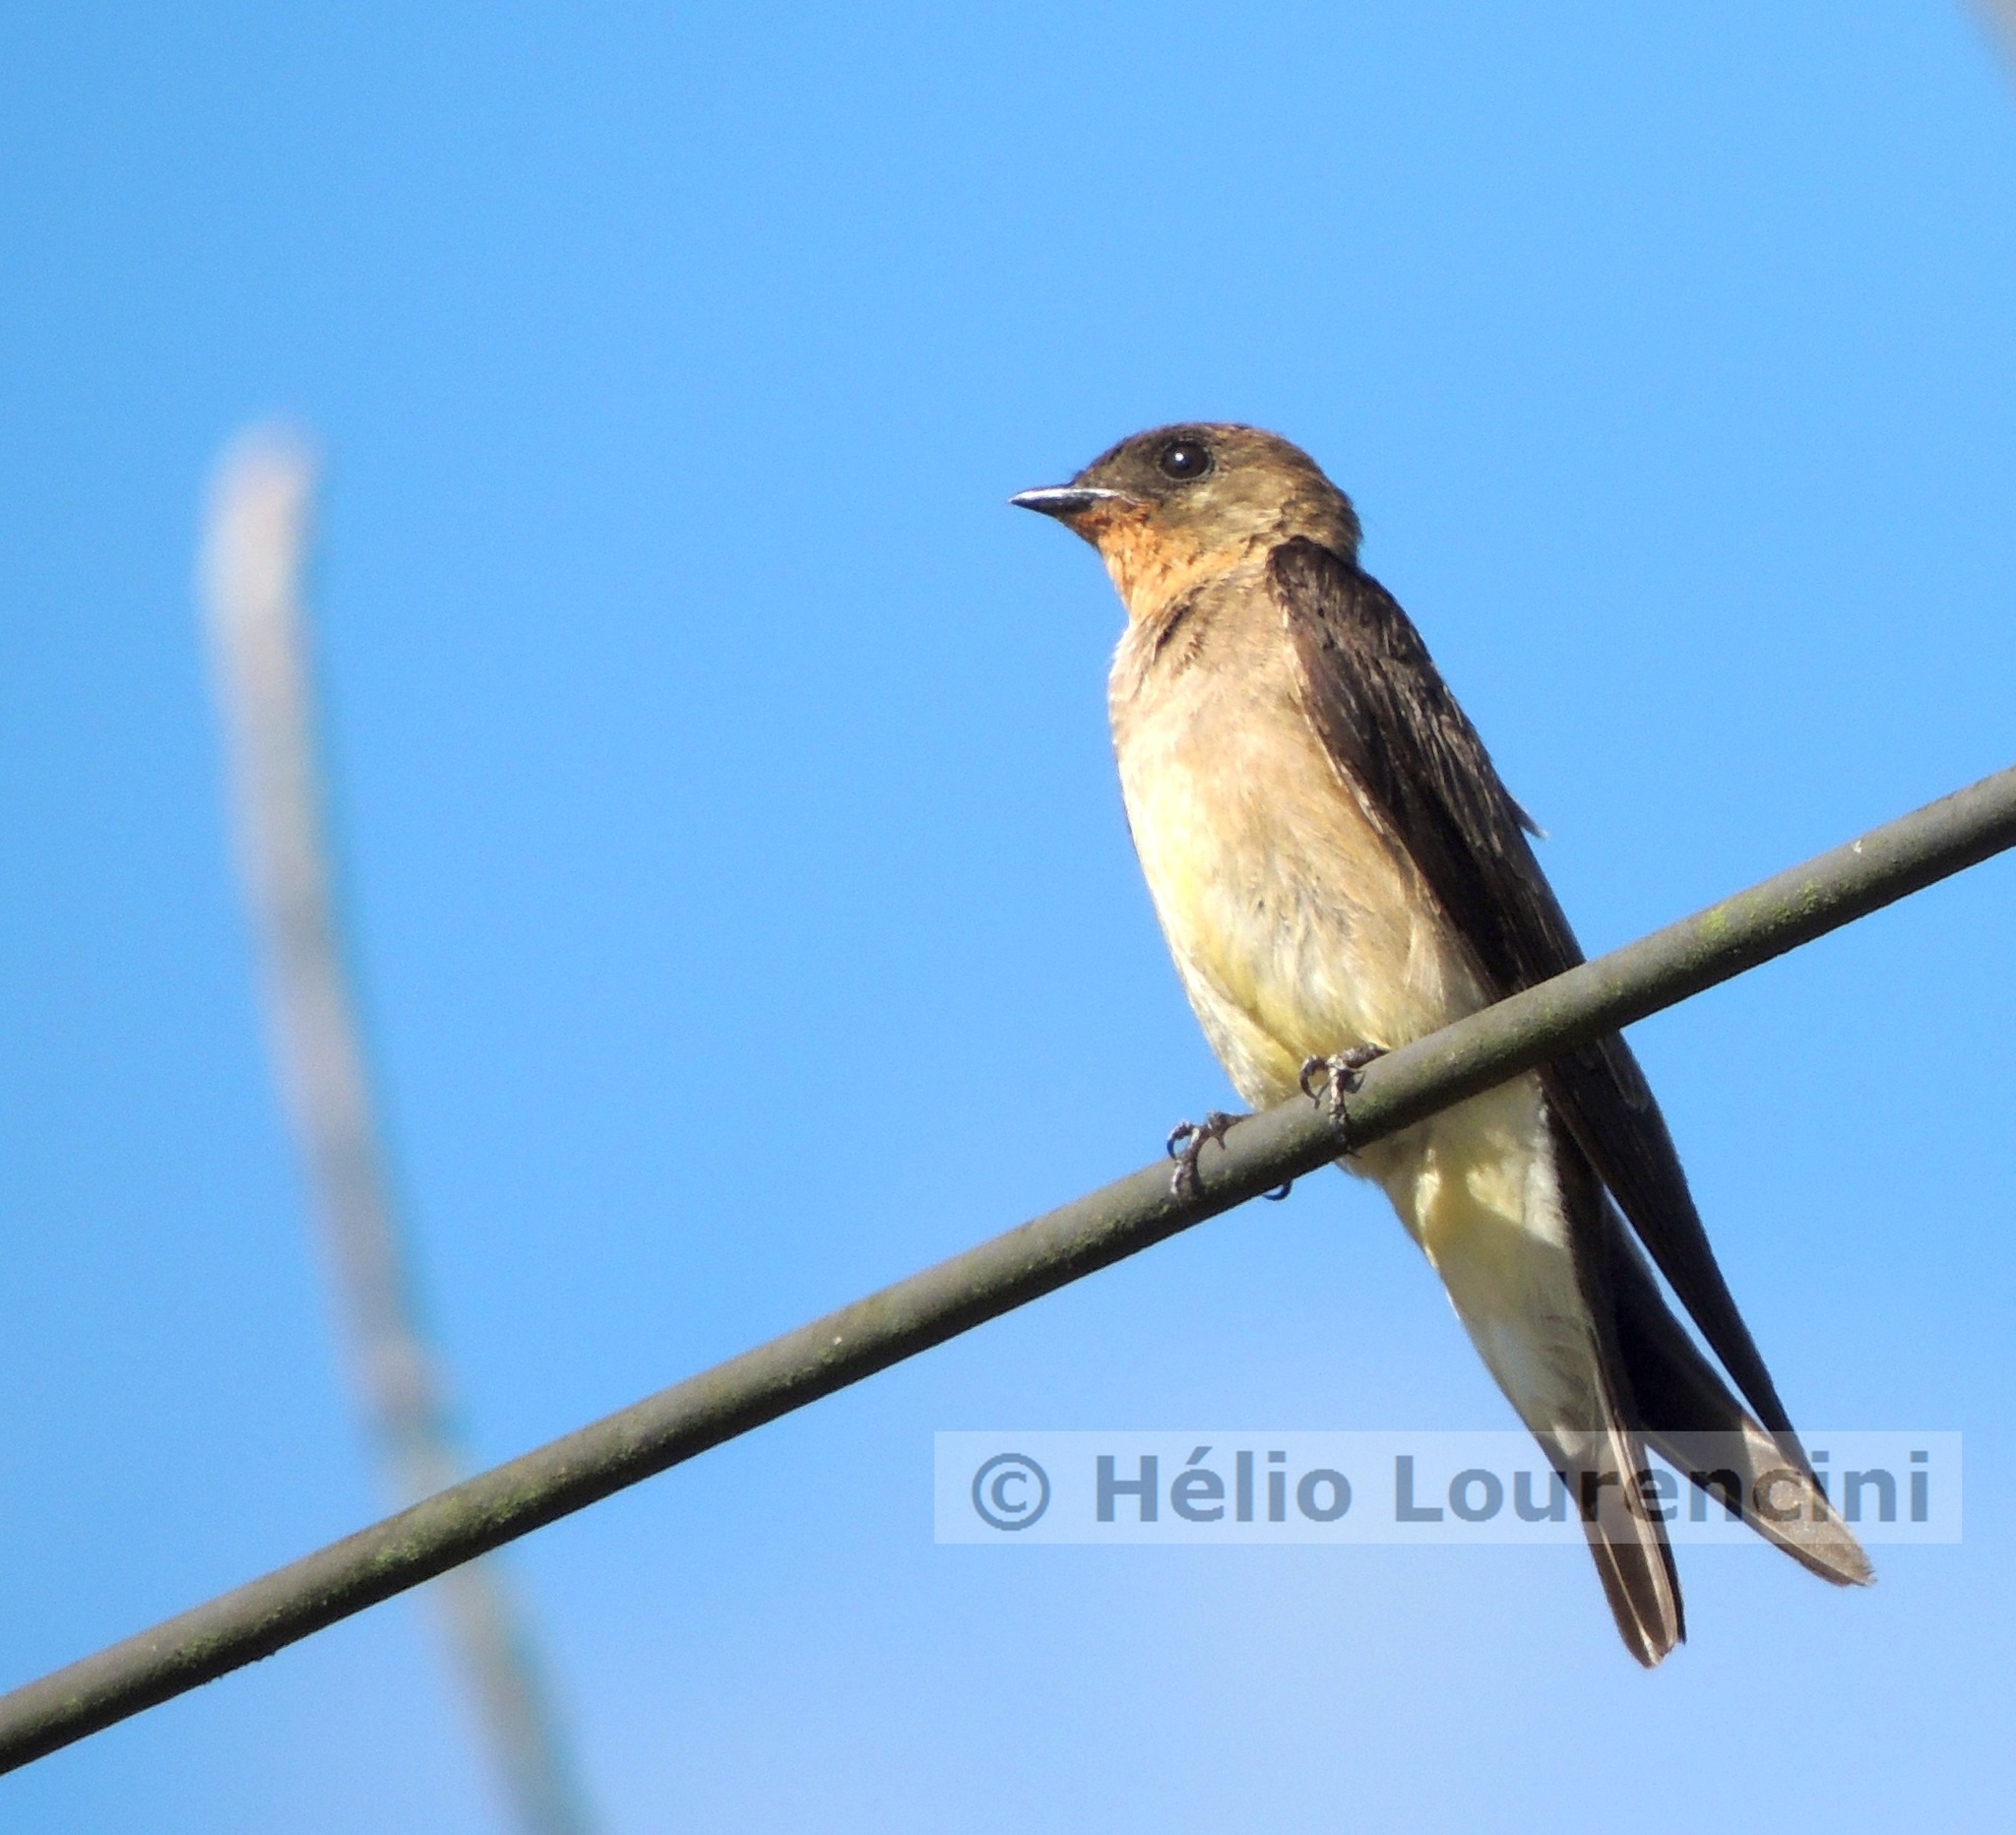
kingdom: Animalia
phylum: Chordata
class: Aves
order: Passeriformes
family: Hirundinidae
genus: Stelgidopteryx
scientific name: Stelgidopteryx ruficollis
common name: Southern rough-winged swallow
